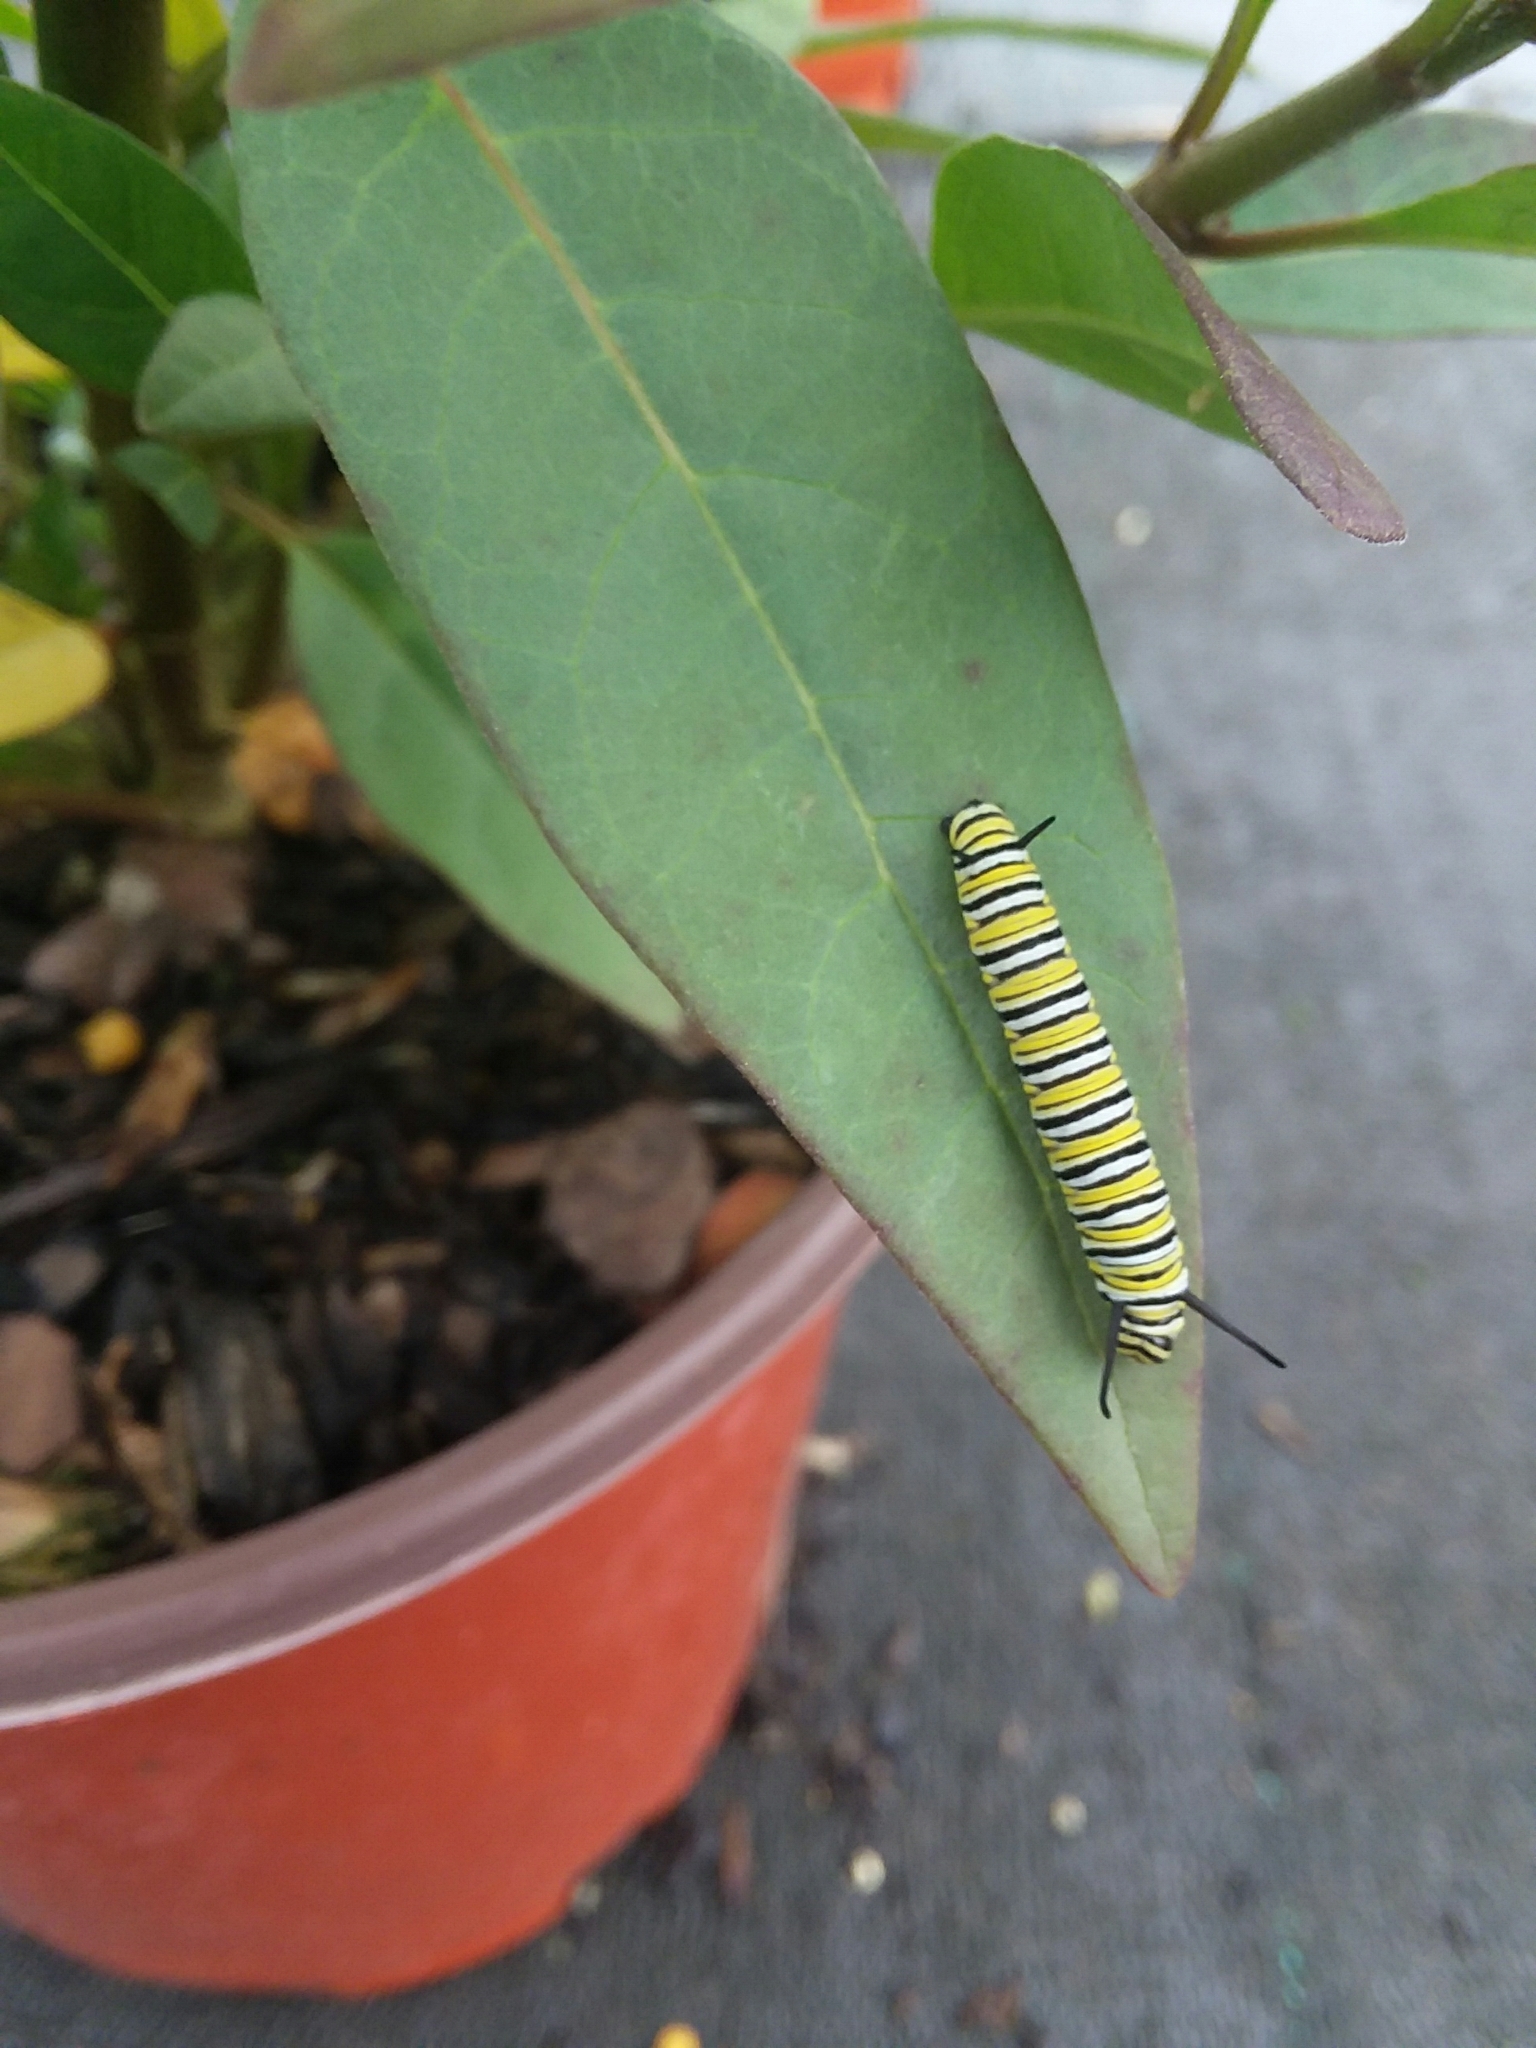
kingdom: Animalia
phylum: Arthropoda
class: Insecta
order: Lepidoptera
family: Nymphalidae
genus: Danaus
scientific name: Danaus plexippus
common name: Monarch
